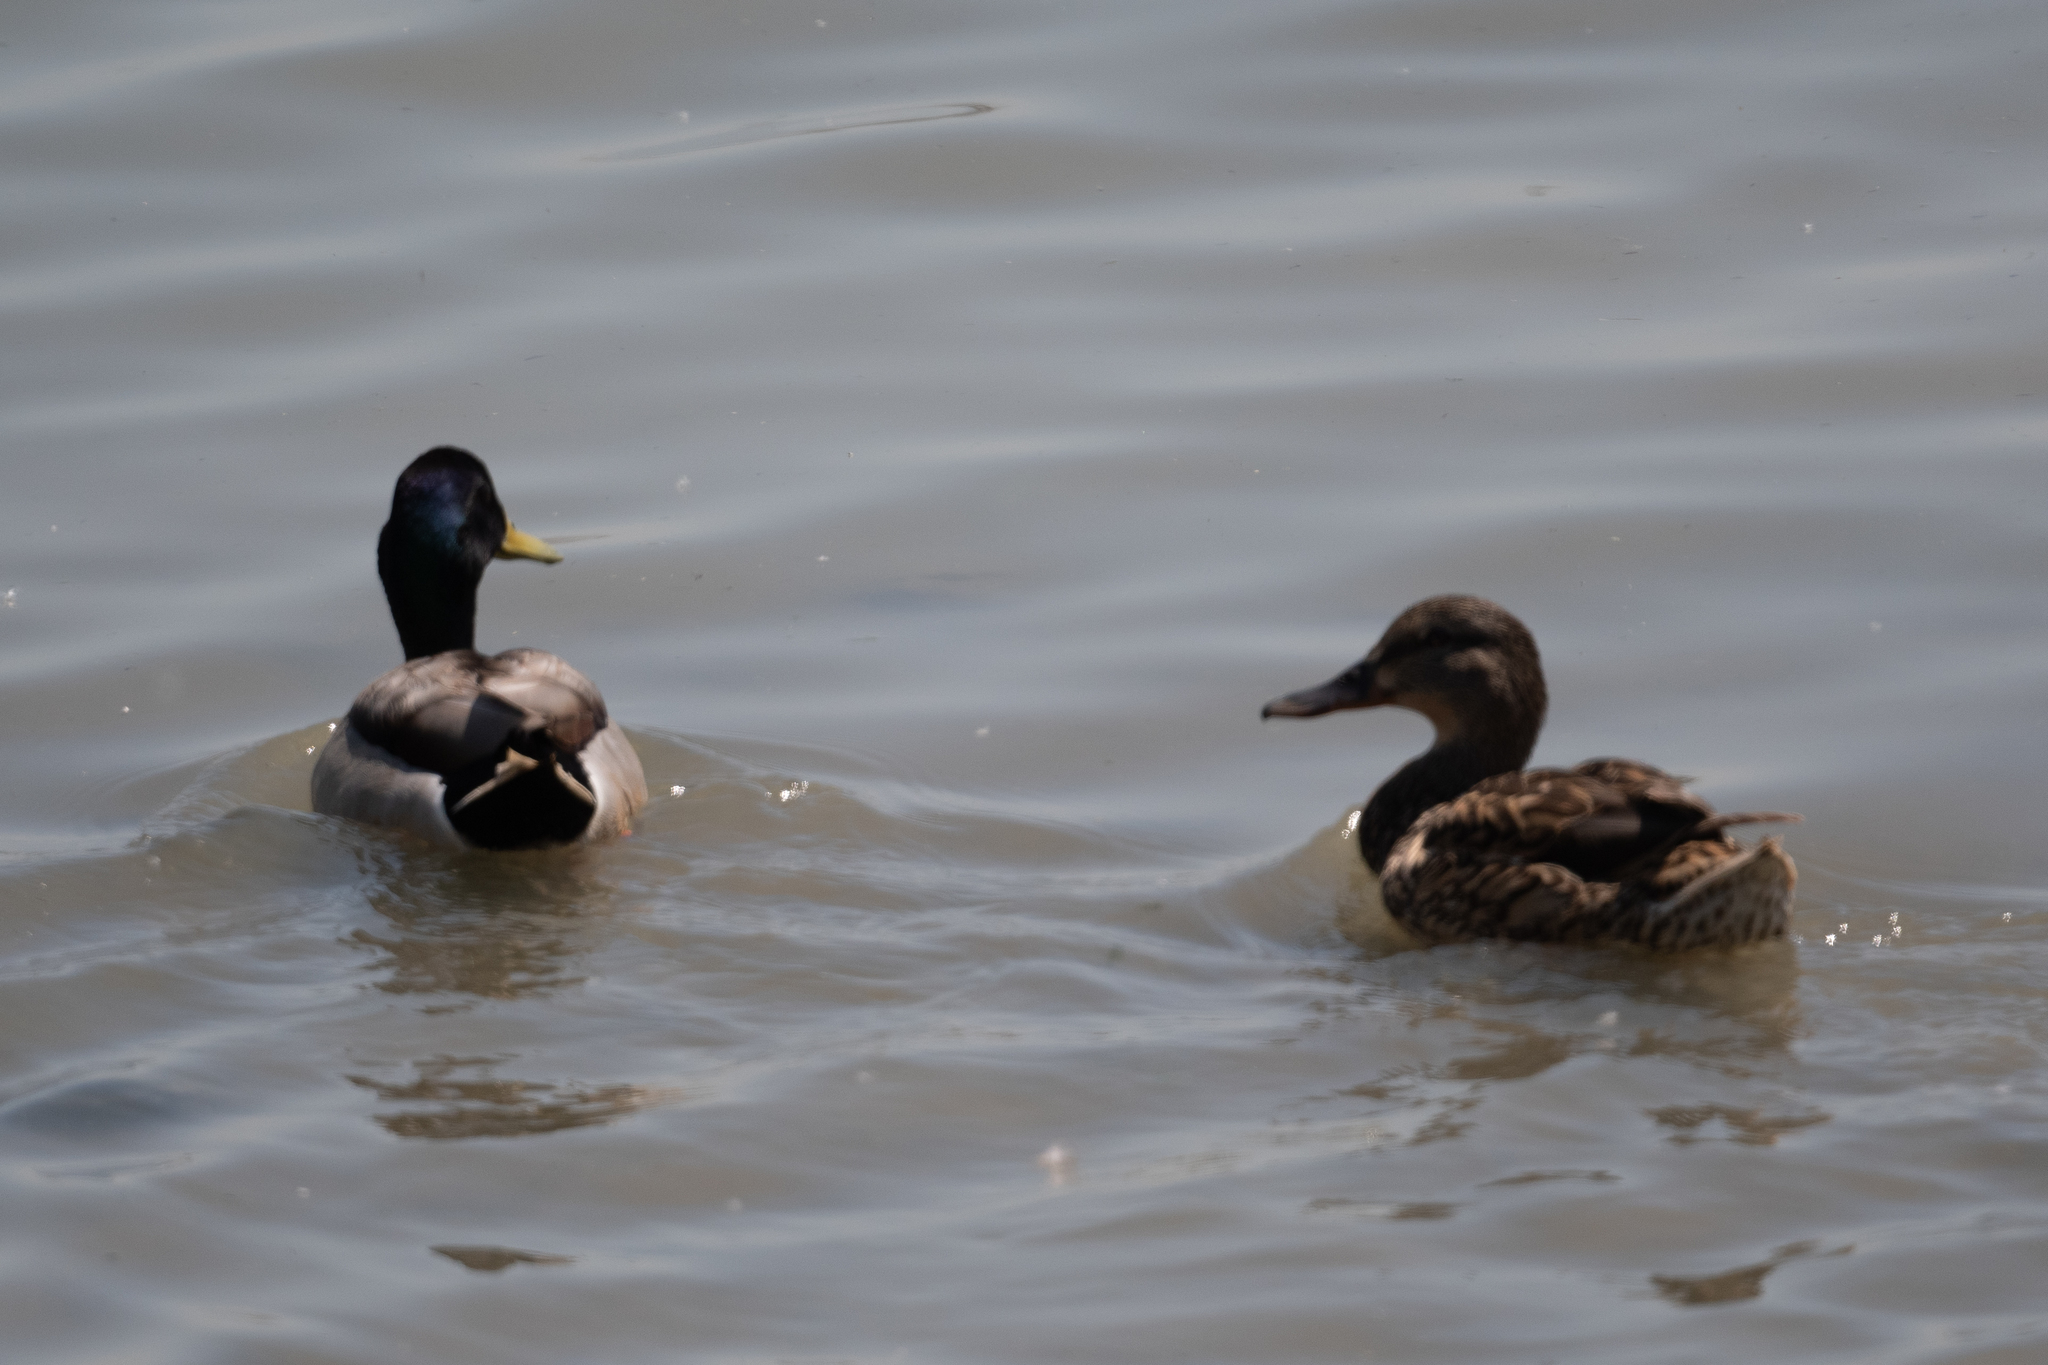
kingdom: Animalia
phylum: Chordata
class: Aves
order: Anseriformes
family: Anatidae
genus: Anas
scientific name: Anas platyrhynchos
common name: Mallard
